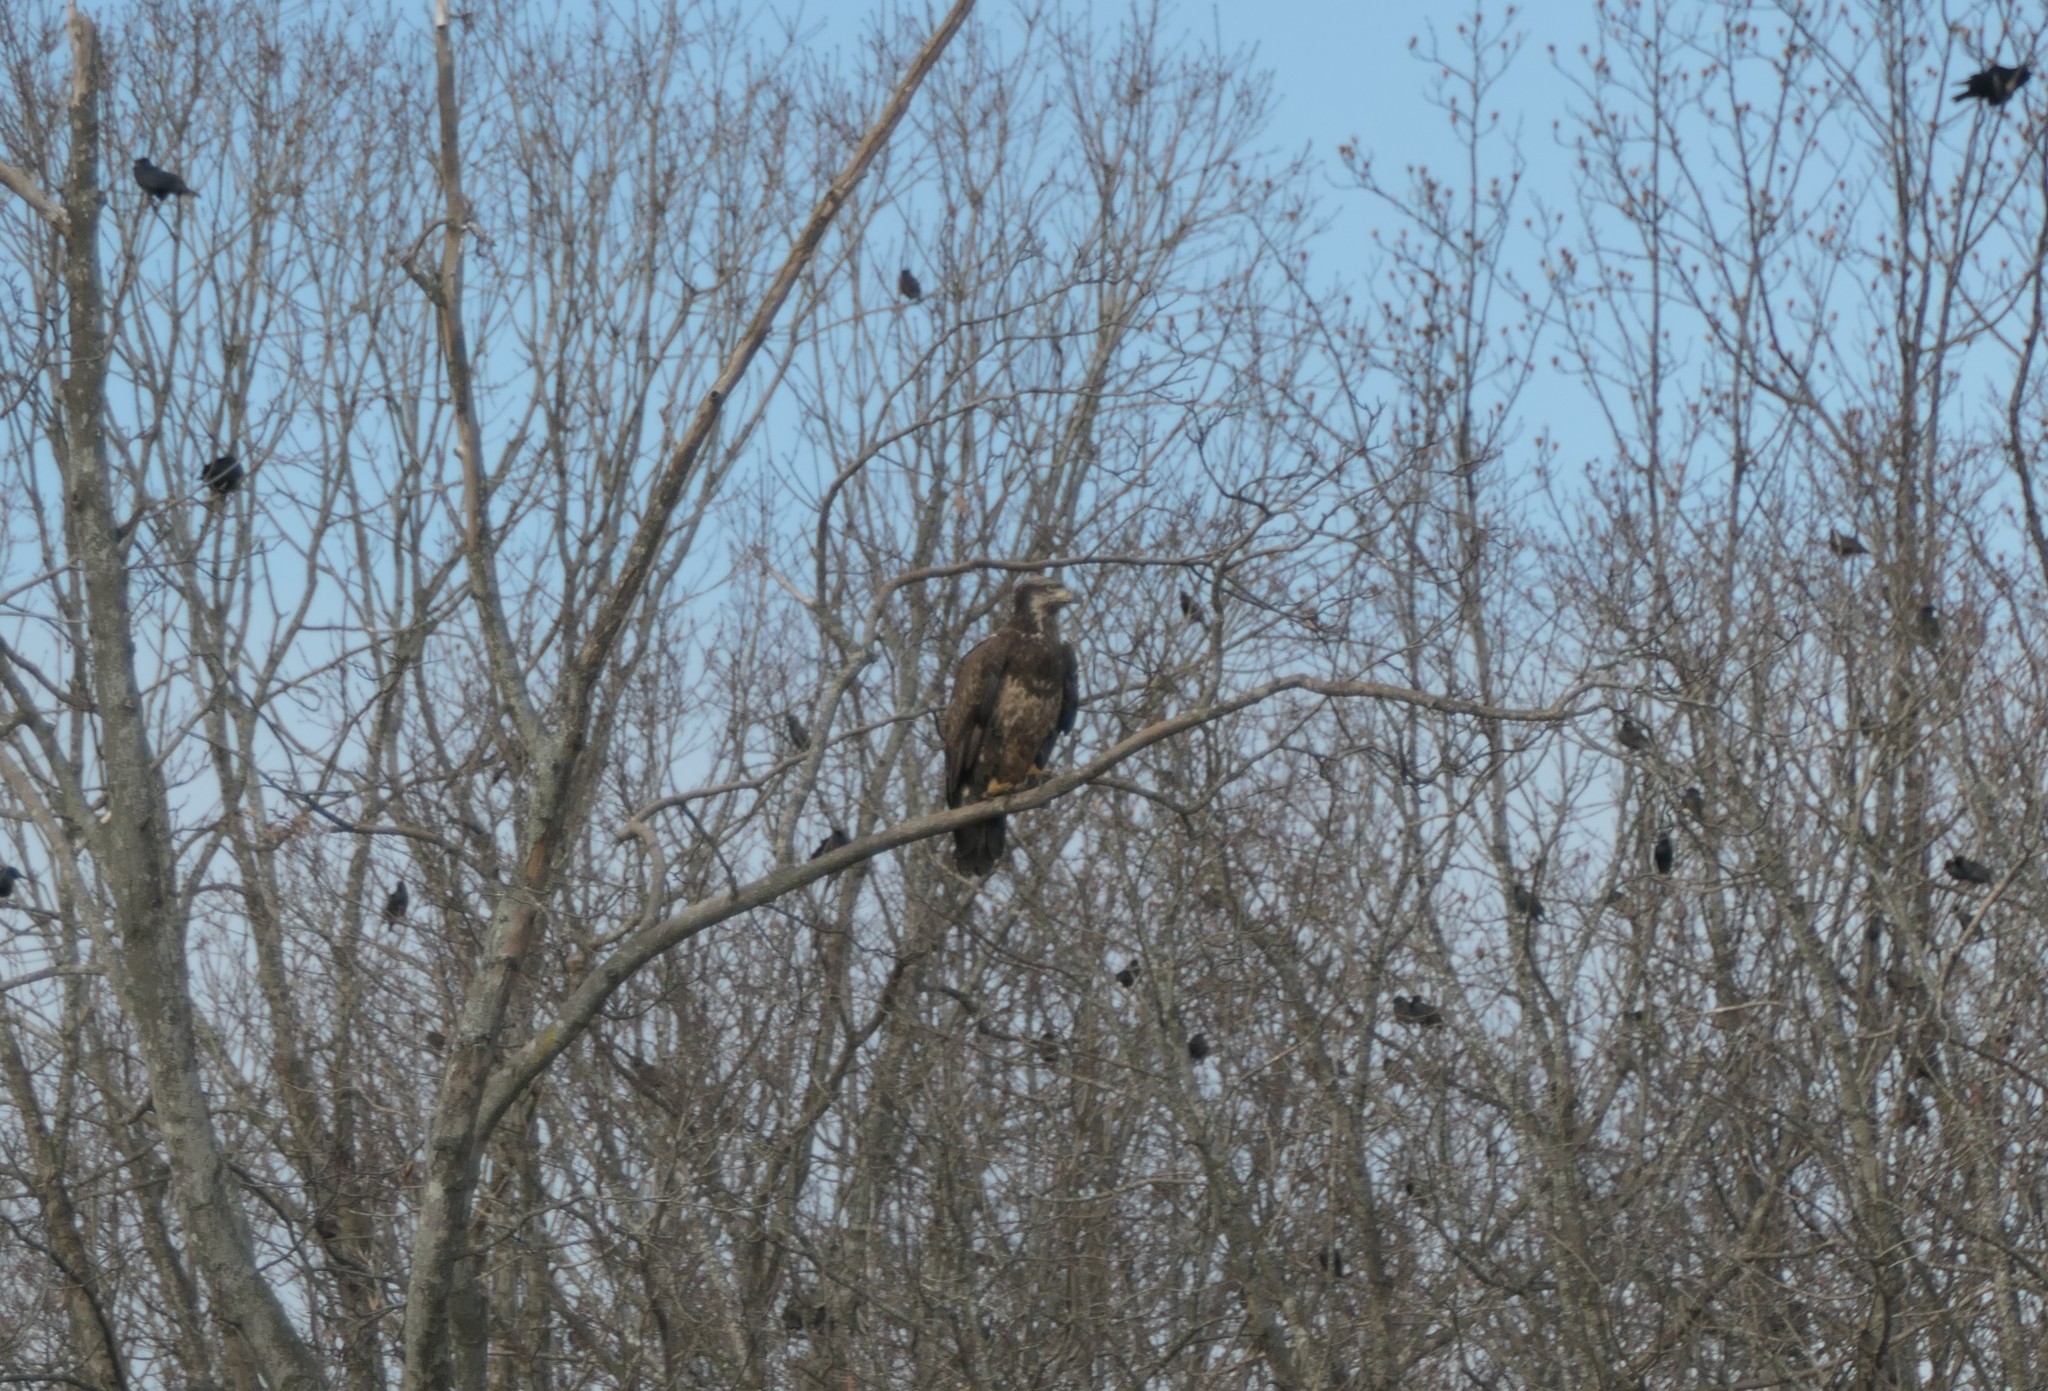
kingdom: Animalia
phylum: Chordata
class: Aves
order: Accipitriformes
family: Accipitridae
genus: Haliaeetus
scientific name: Haliaeetus leucocephalus
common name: Bald eagle
